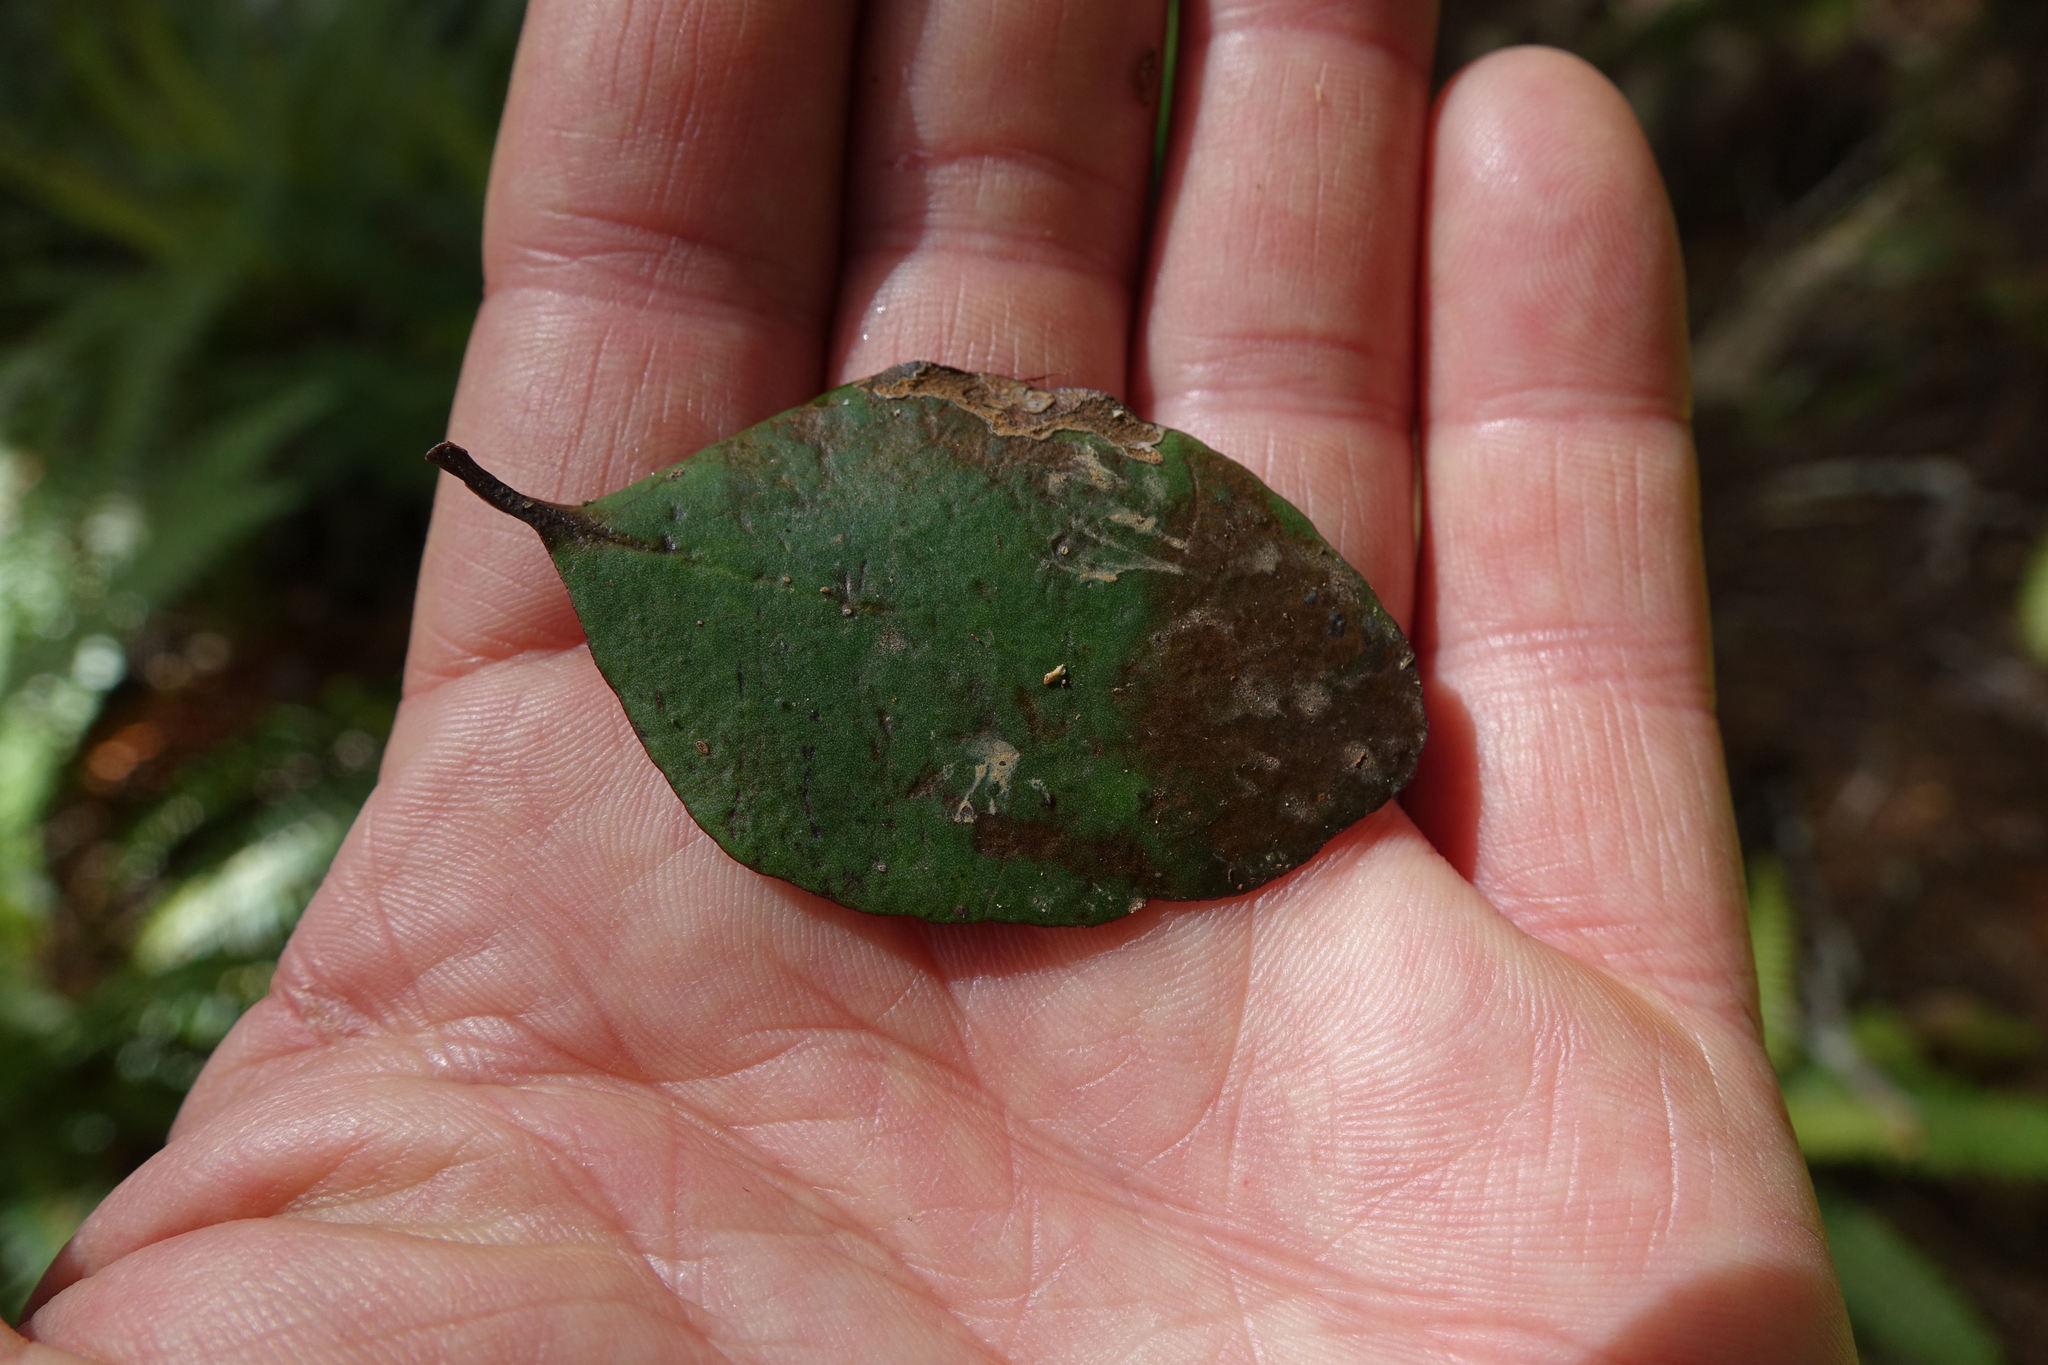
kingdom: Plantae
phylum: Tracheophyta
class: Magnoliopsida
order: Santalales
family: Loranthaceae
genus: Peraxilla
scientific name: Peraxilla colensoi
